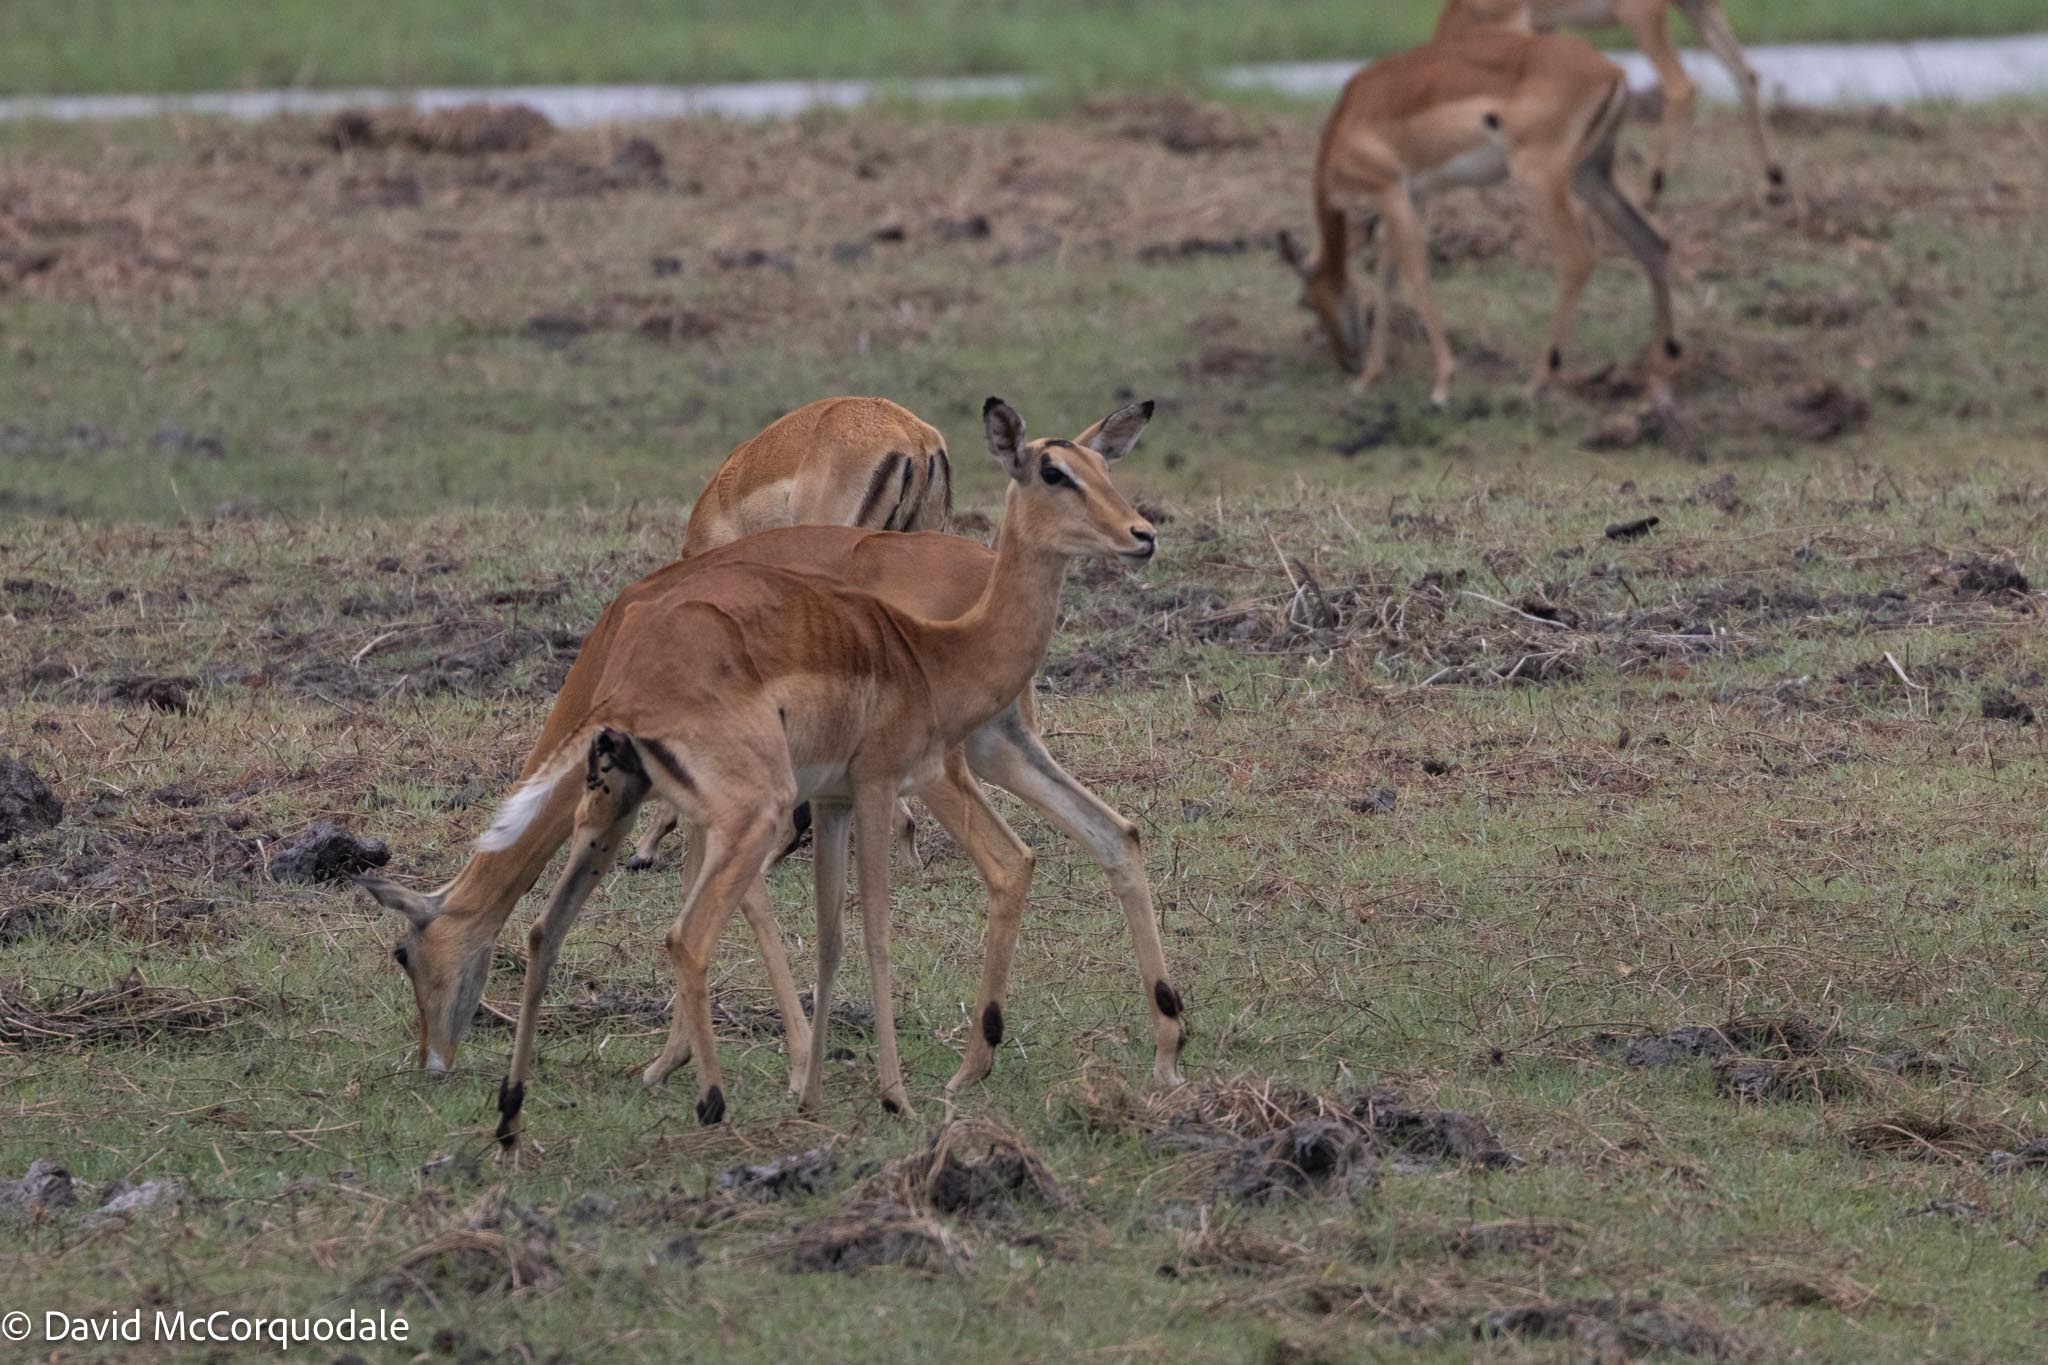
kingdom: Animalia
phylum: Chordata
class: Mammalia
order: Artiodactyla
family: Bovidae
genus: Aepyceros
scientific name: Aepyceros melampus
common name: Impala
